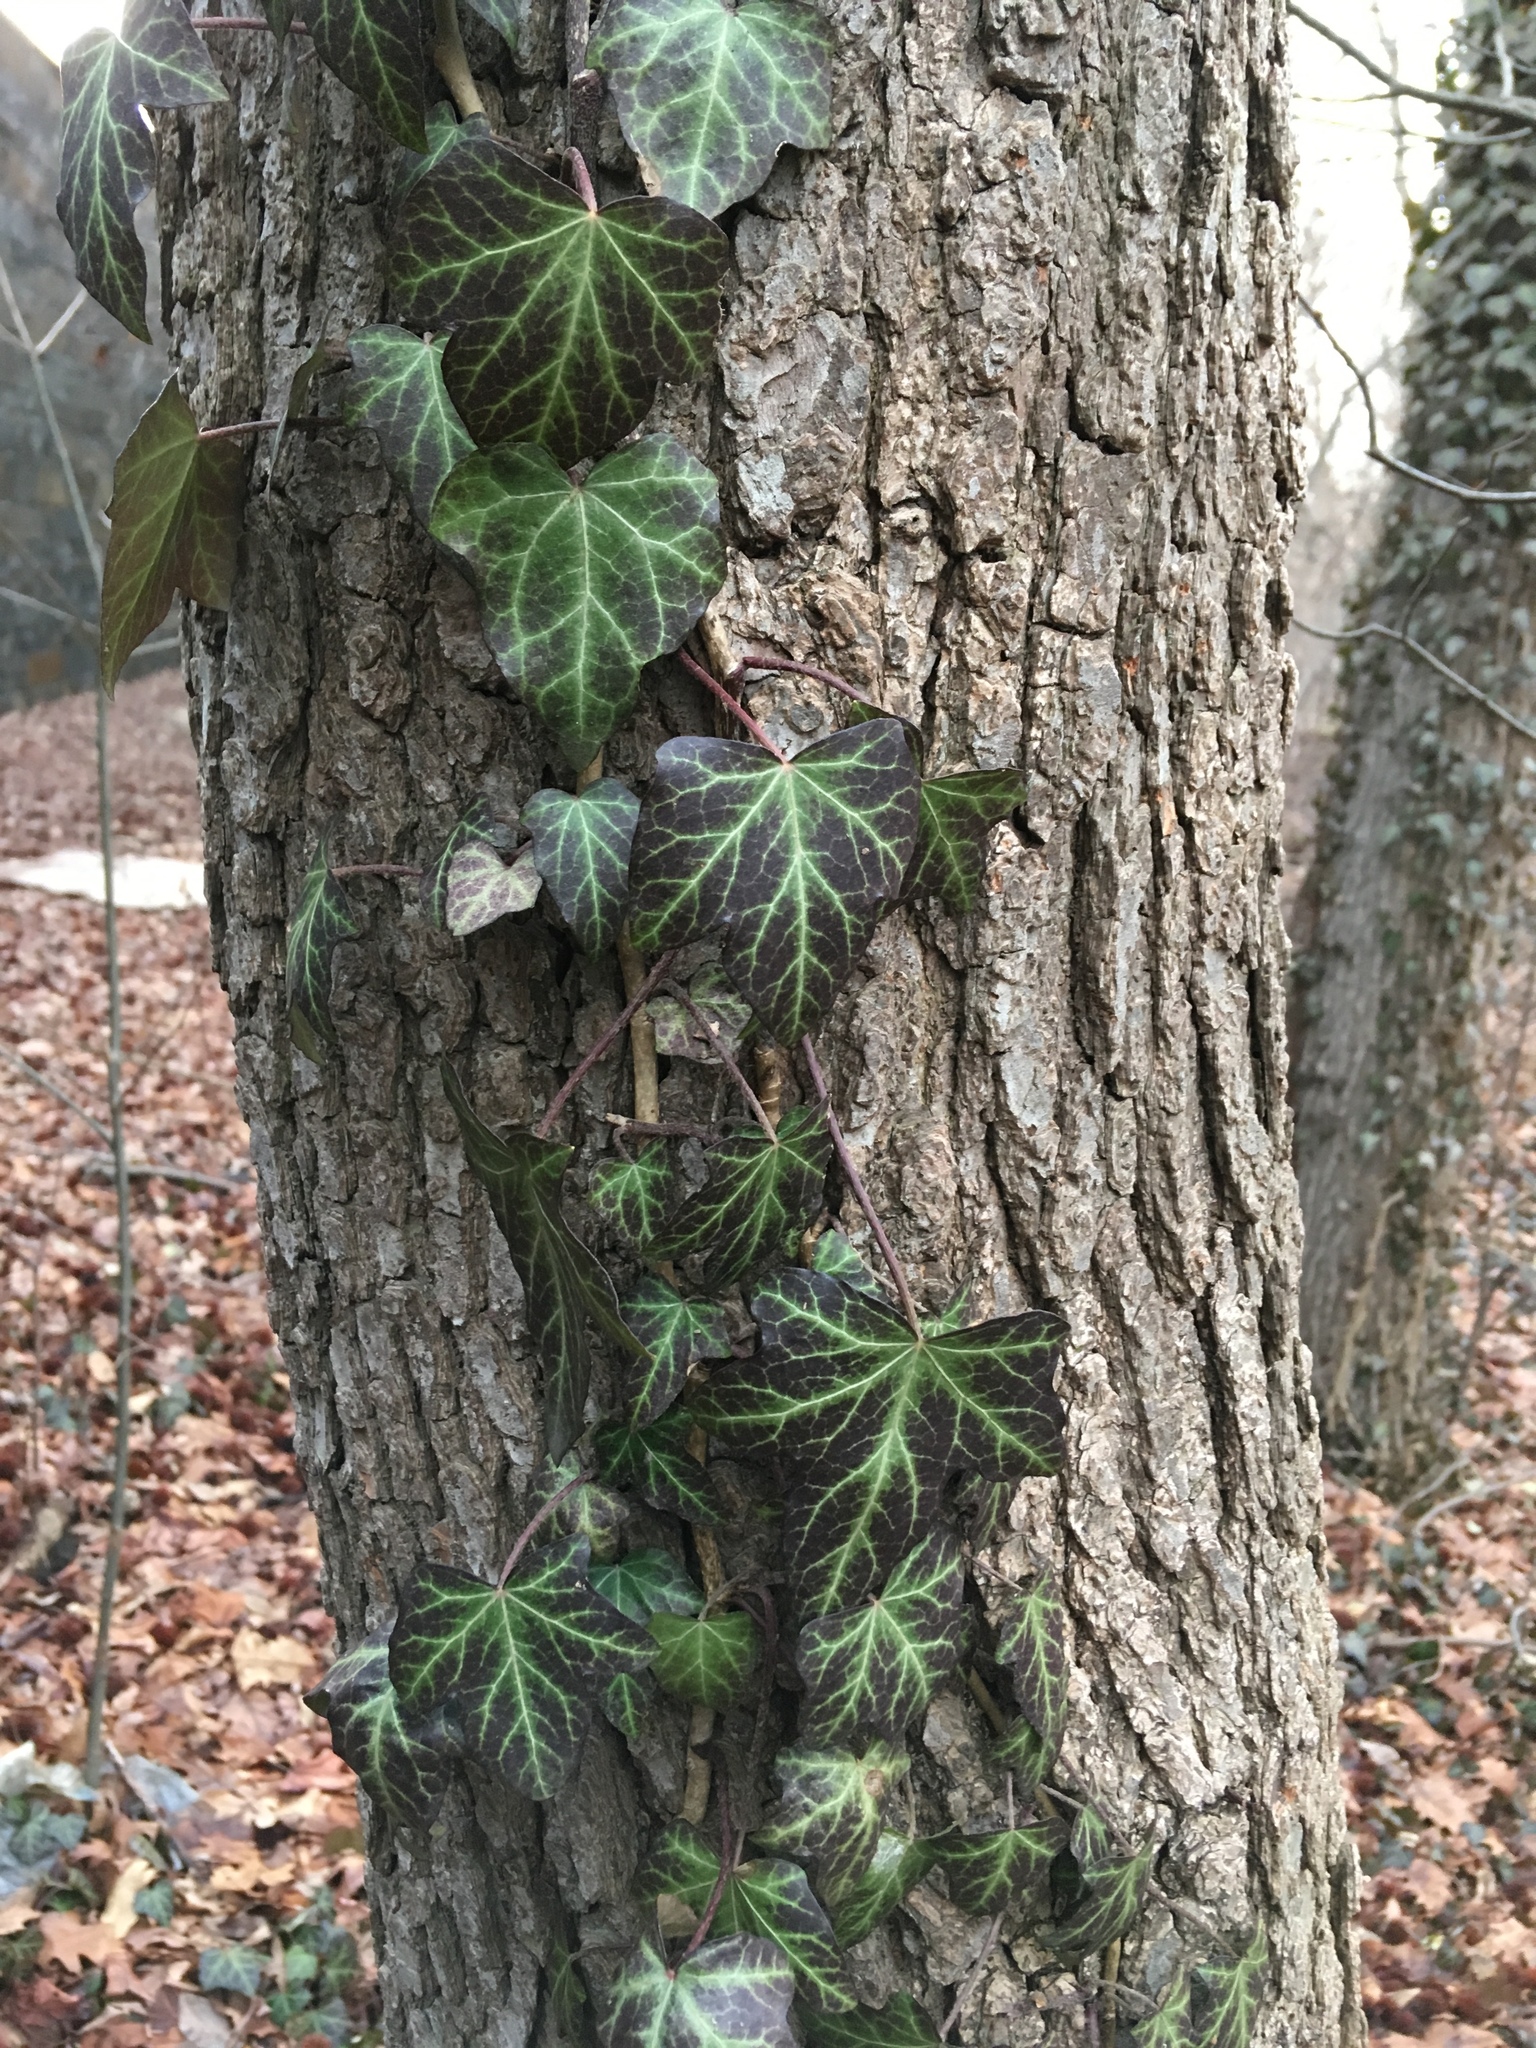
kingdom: Plantae
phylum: Tracheophyta
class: Magnoliopsida
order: Apiales
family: Araliaceae
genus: Hedera
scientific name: Hedera helix
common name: Ivy
